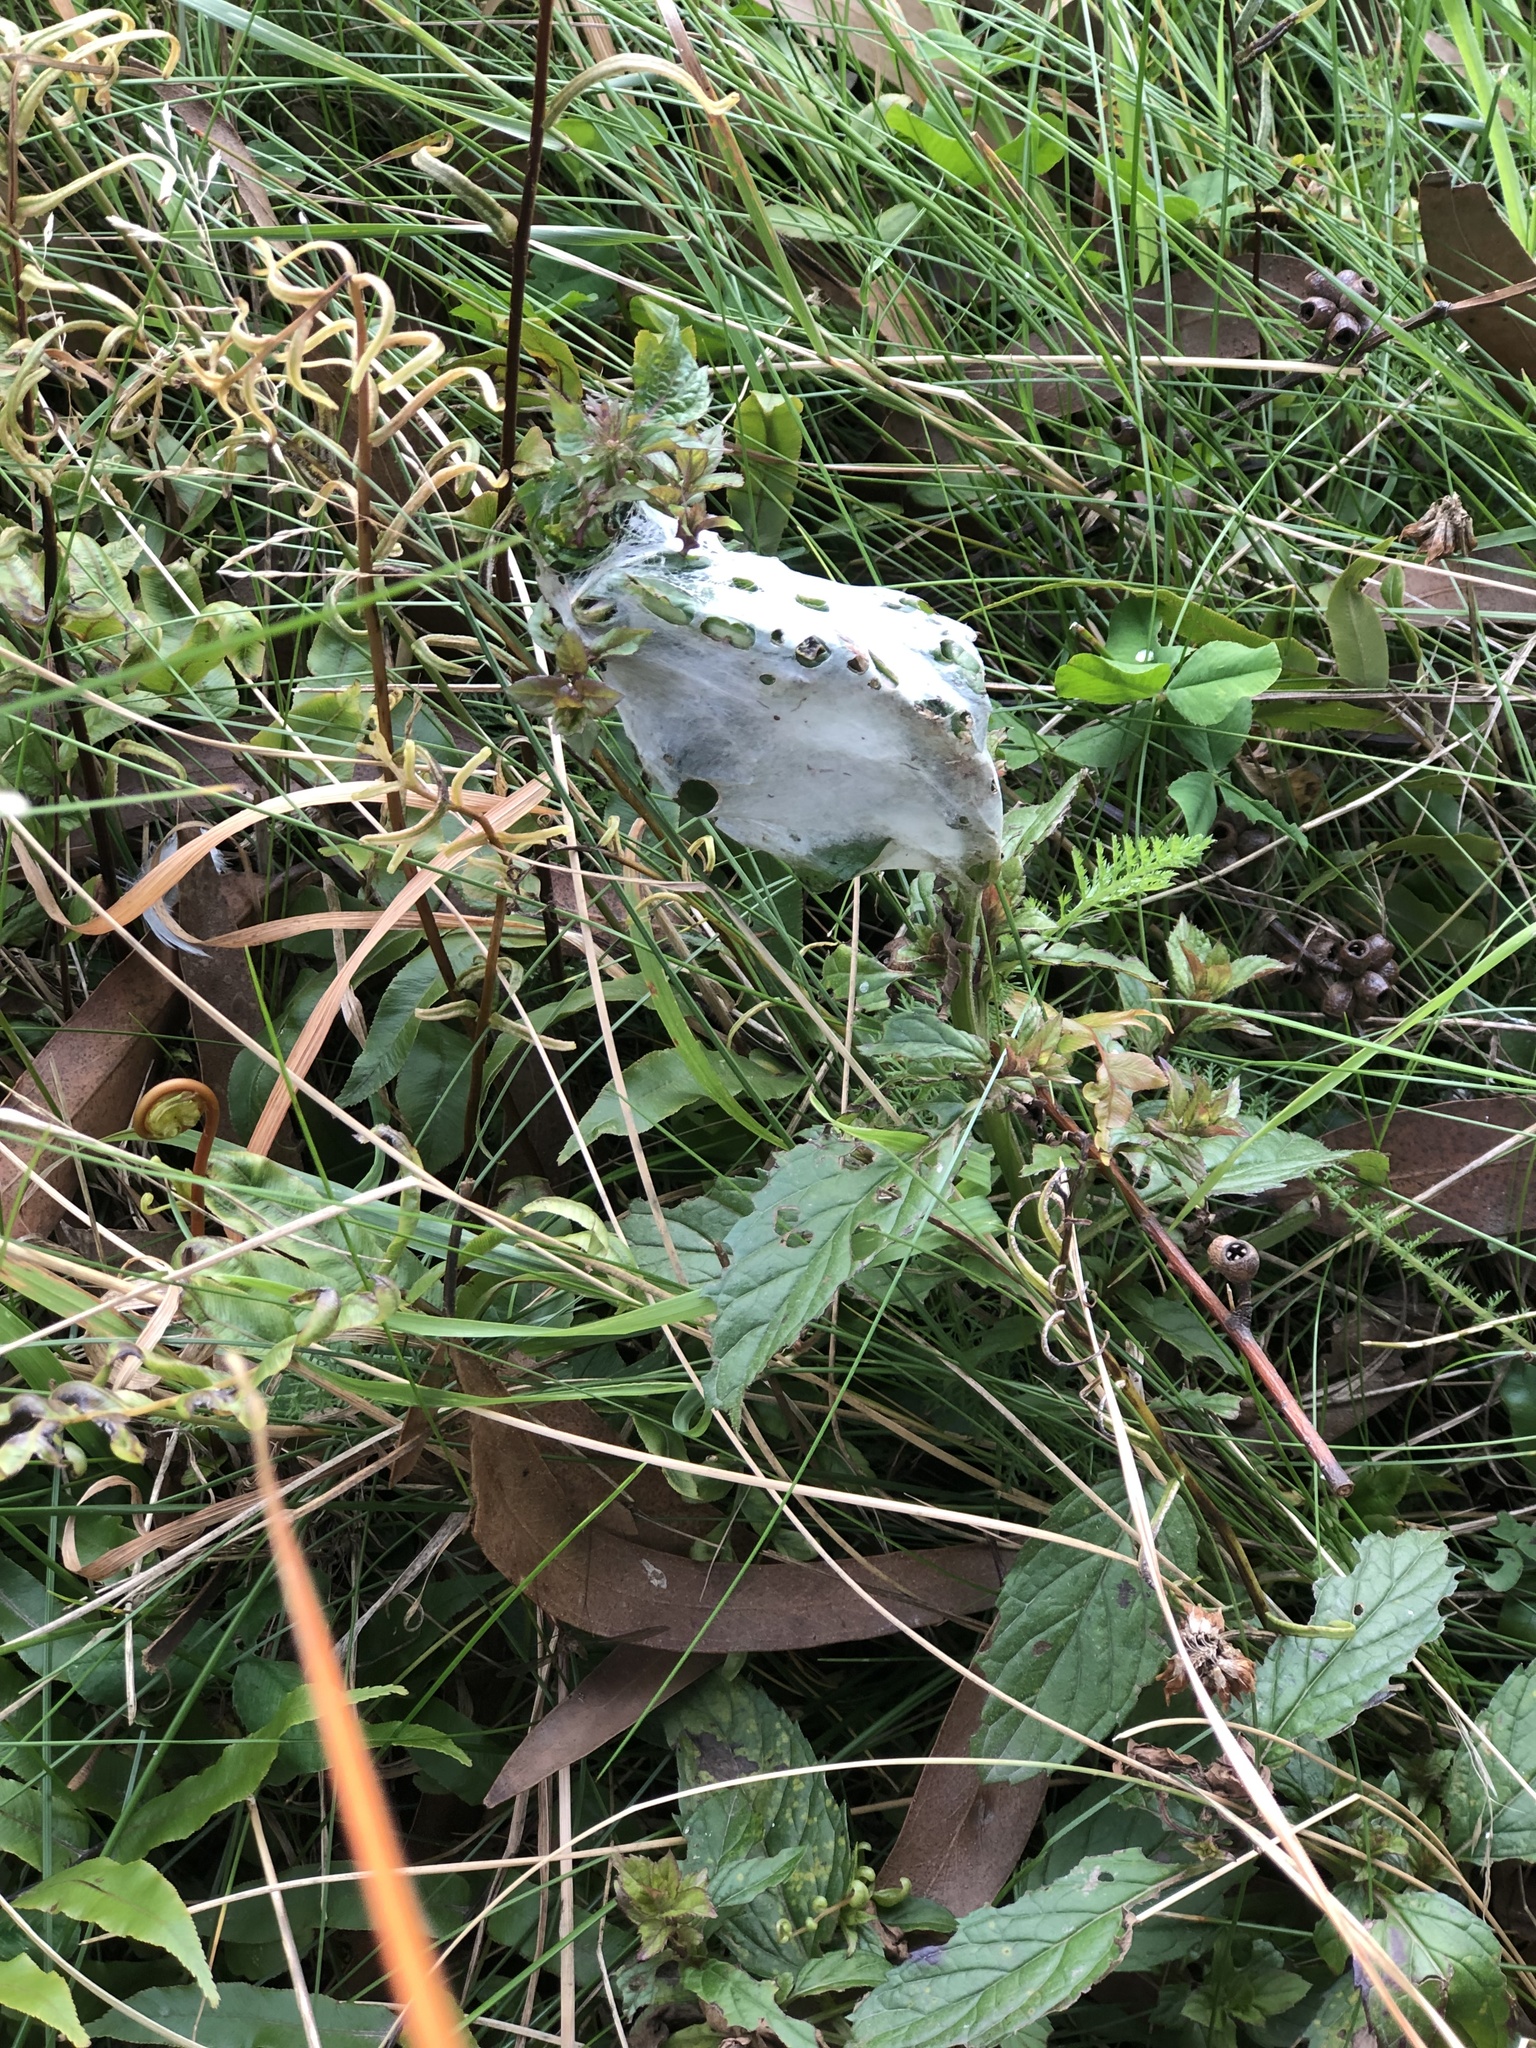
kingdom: Animalia
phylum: Arthropoda
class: Arachnida
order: Araneae
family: Pisauridae
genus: Dolomedes
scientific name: Dolomedes minor
